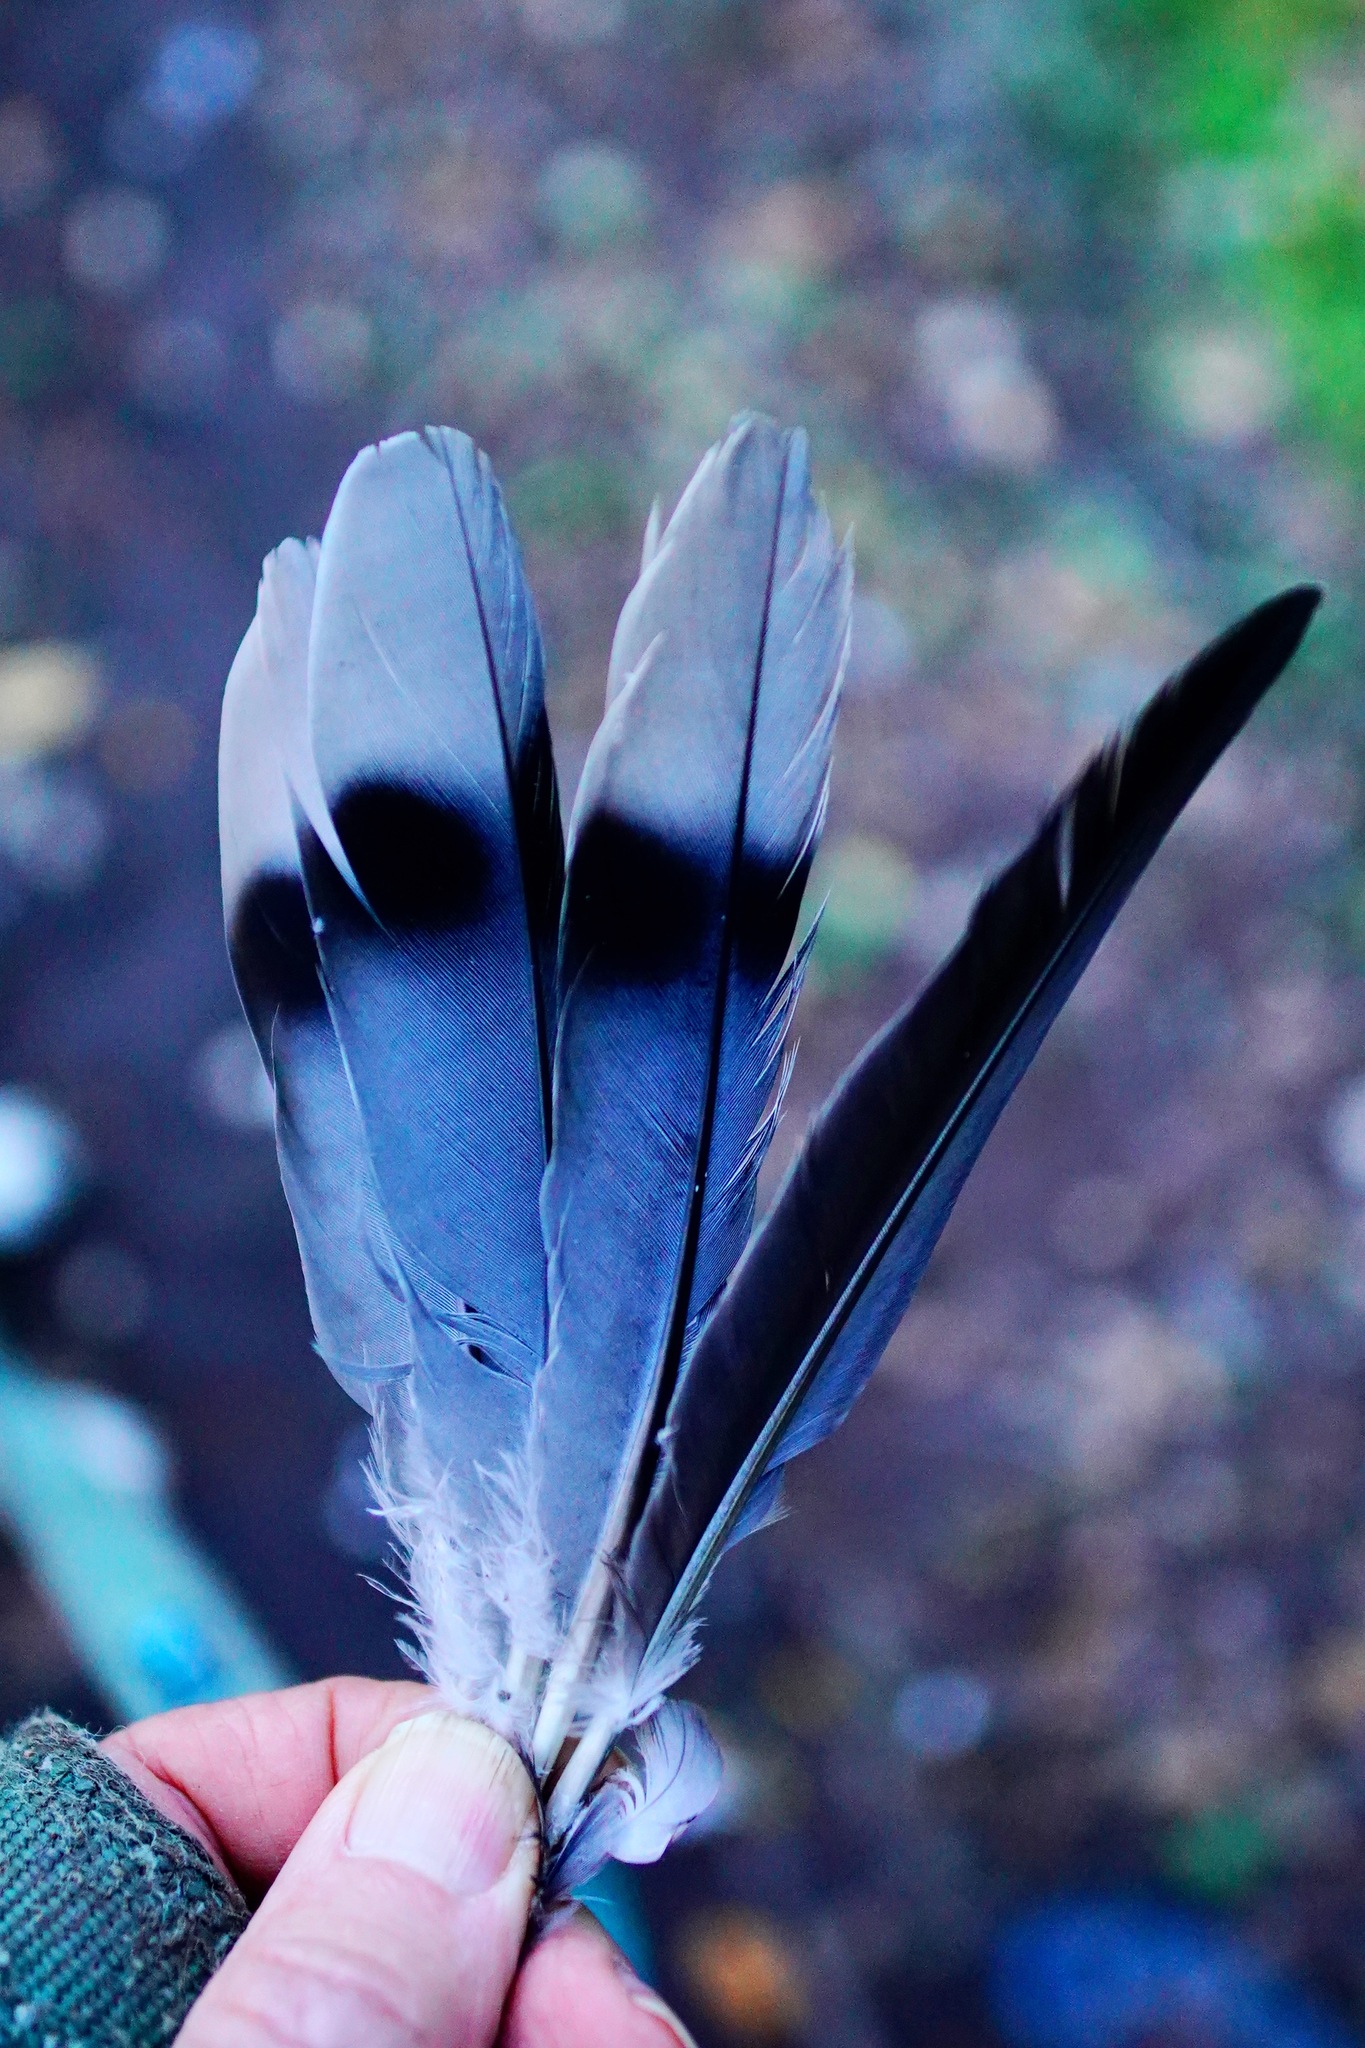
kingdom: Animalia
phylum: Chordata
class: Aves
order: Columbiformes
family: Columbidae
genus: Patagioenas
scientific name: Patagioenas fasciata
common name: Band-tailed pigeon
